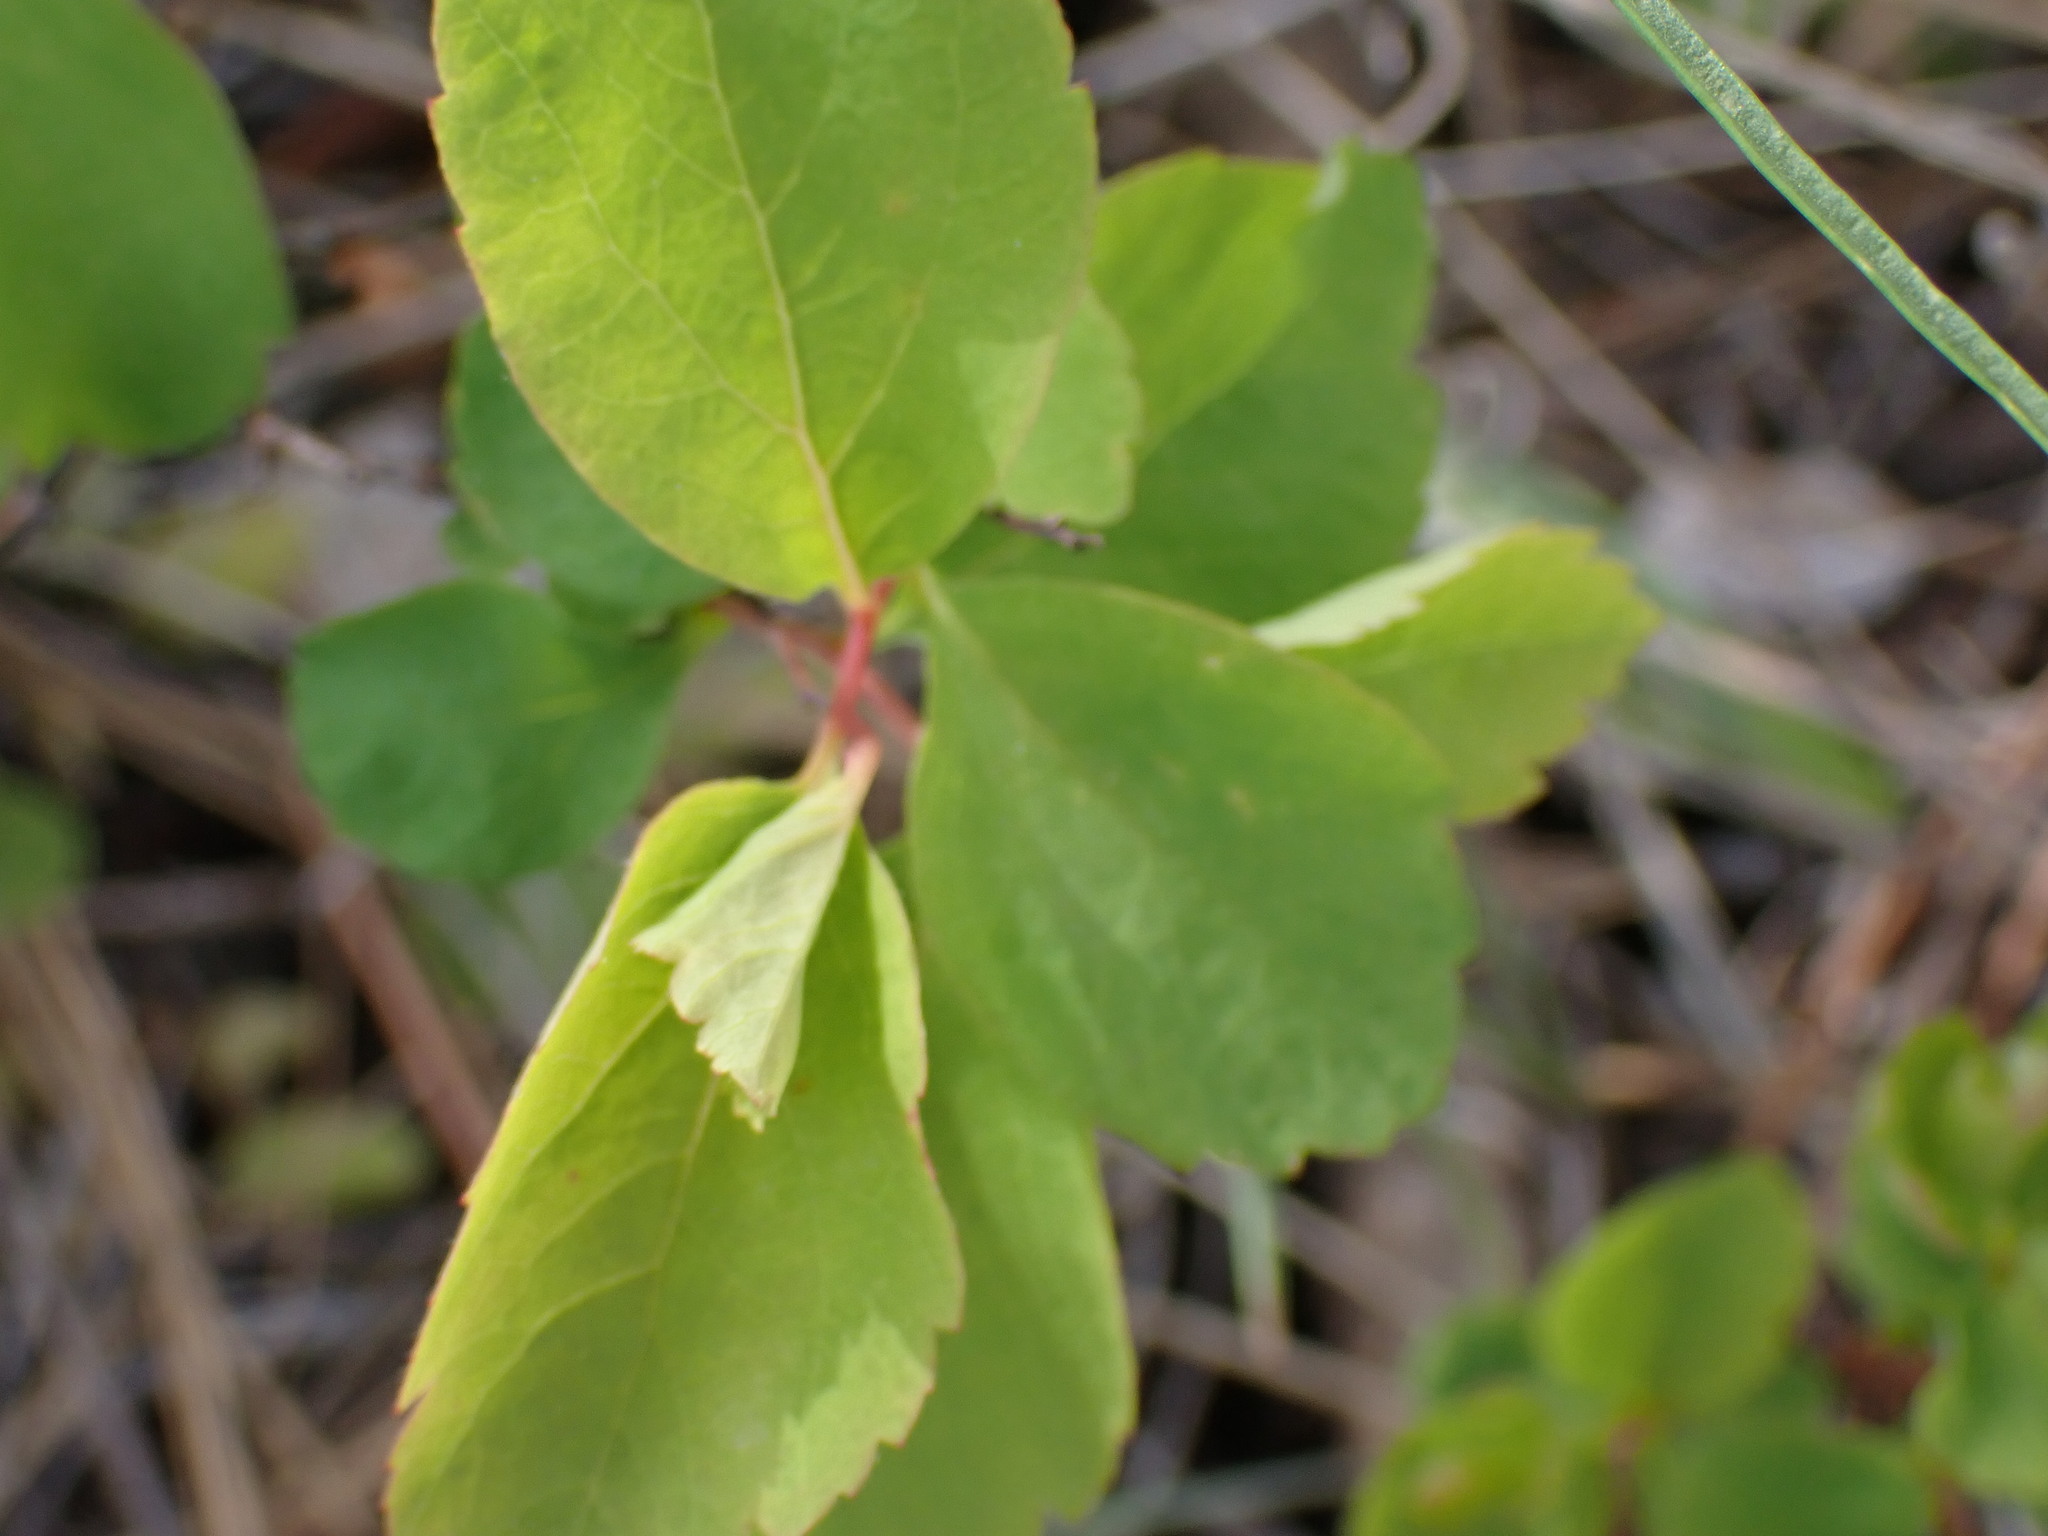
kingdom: Plantae
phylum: Tracheophyta
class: Magnoliopsida
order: Rosales
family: Rosaceae
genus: Spiraea
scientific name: Spiraea lucida
